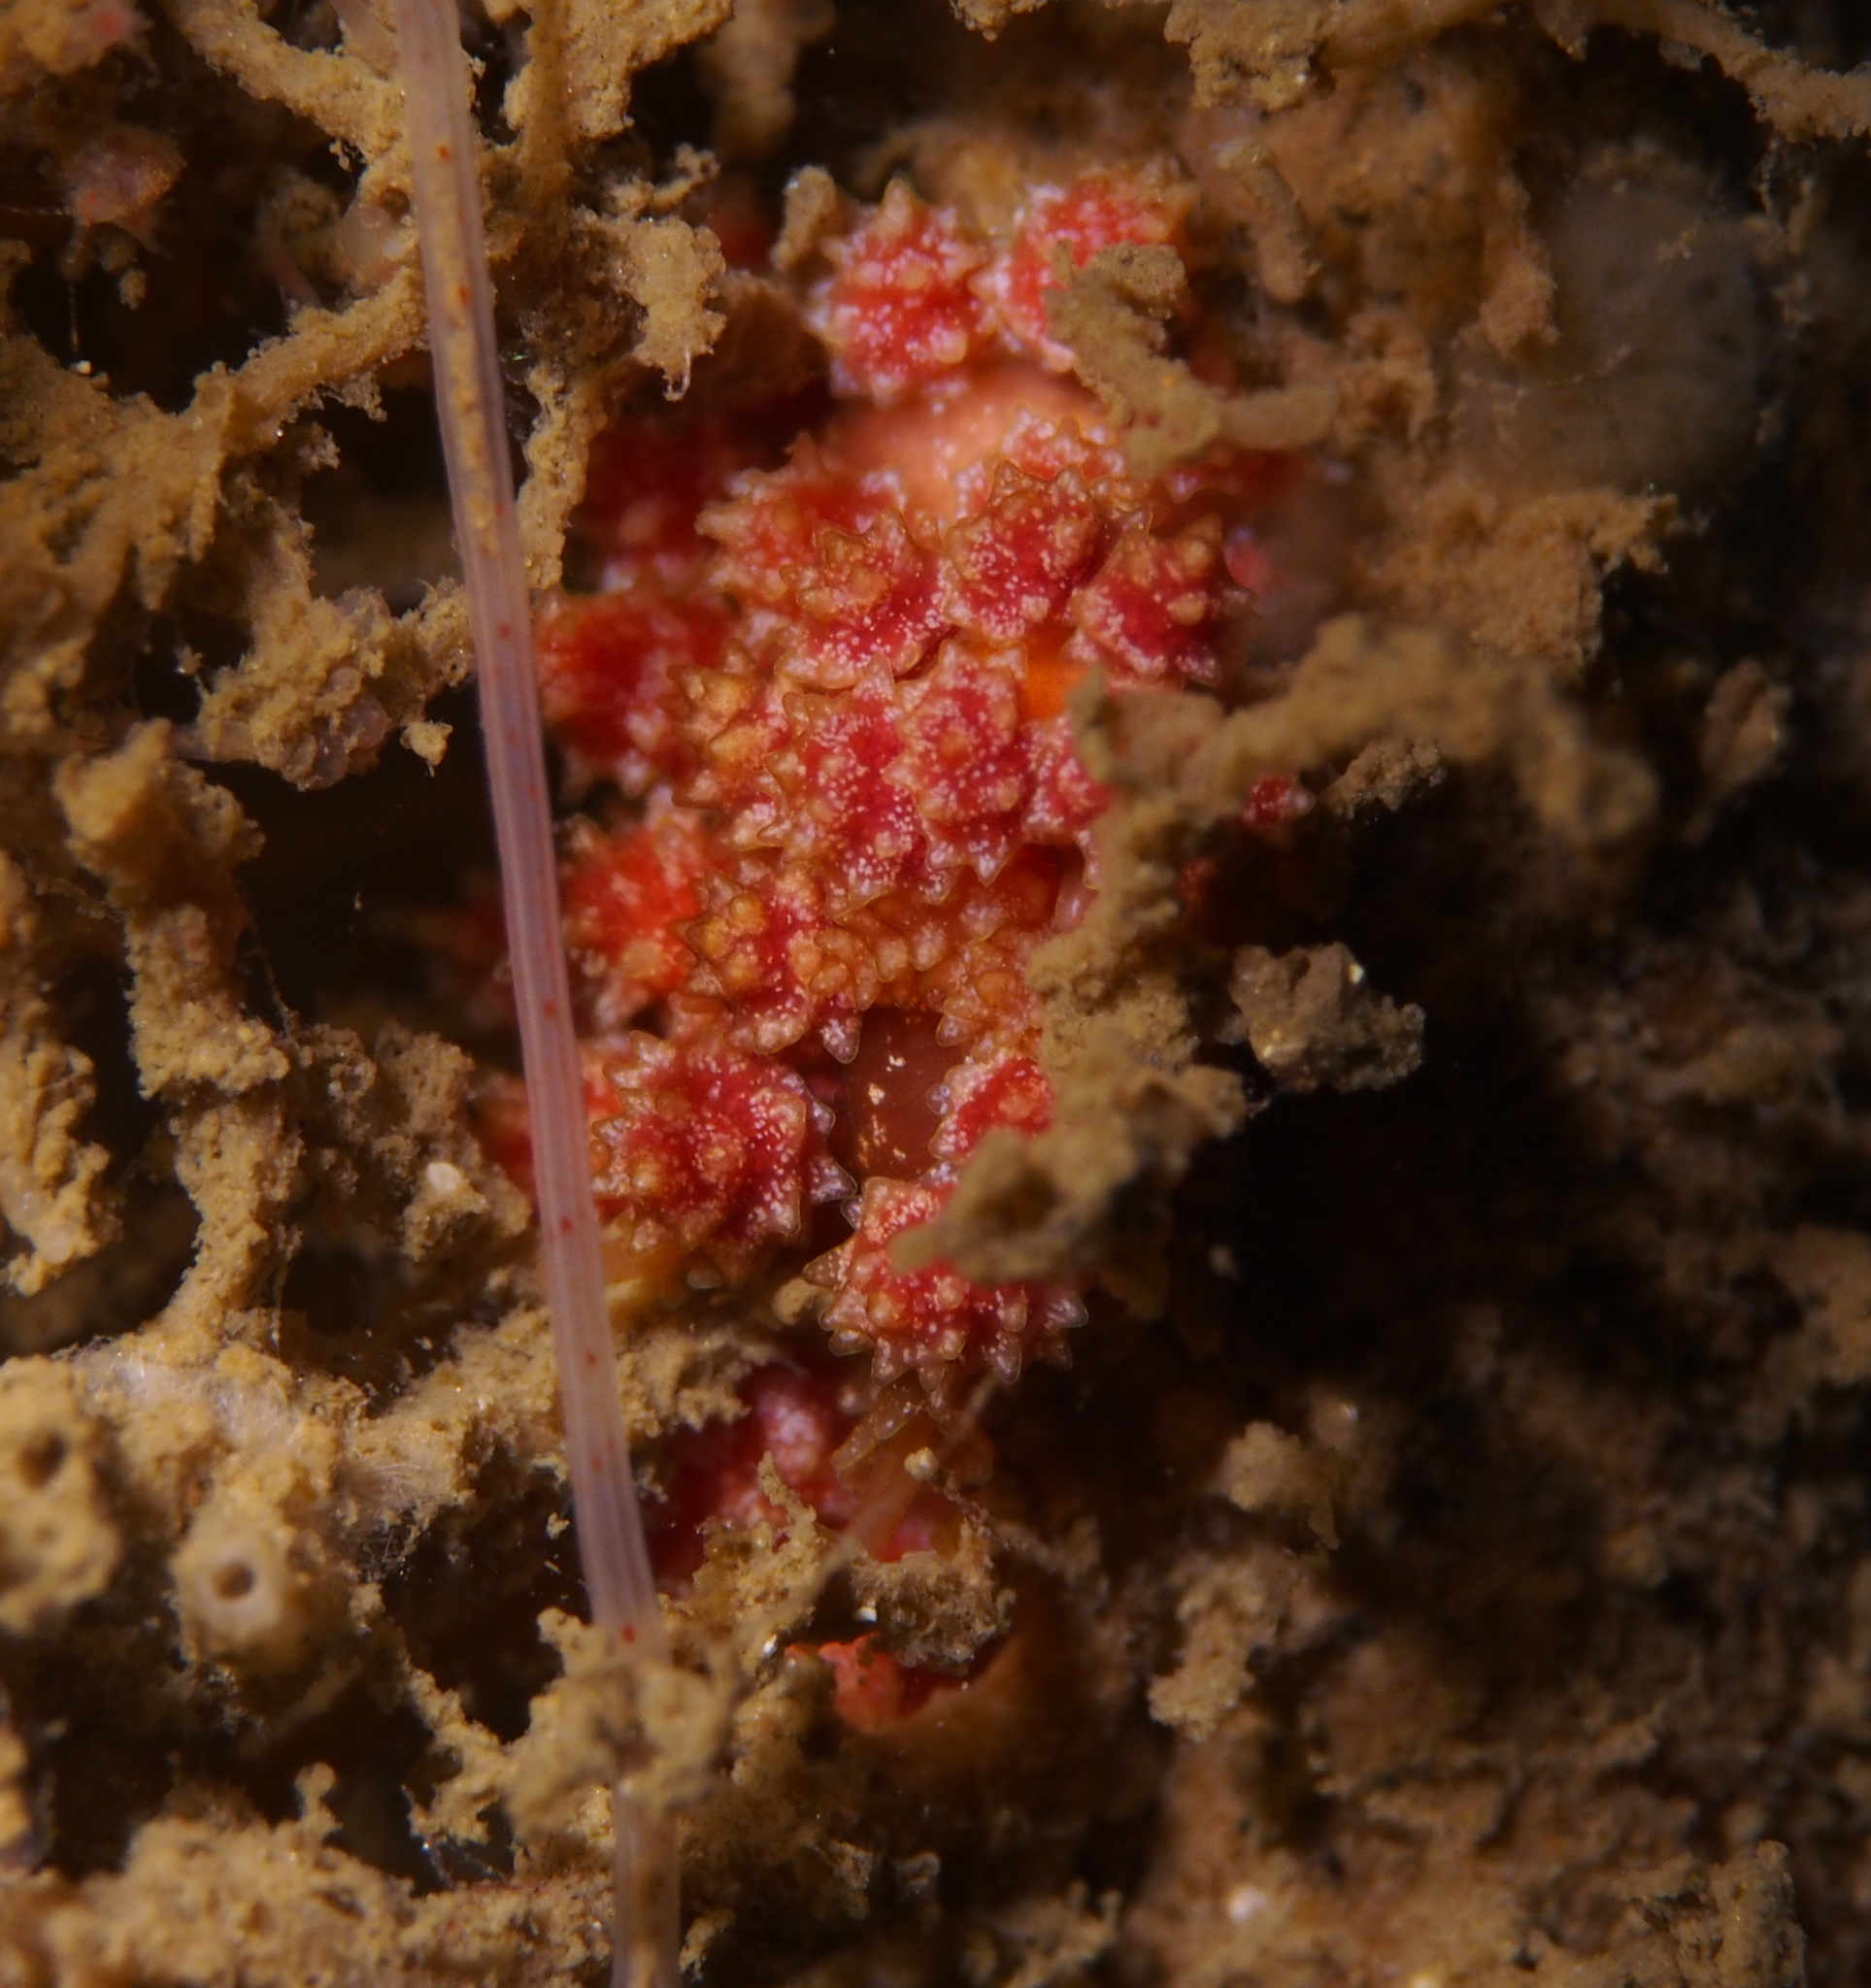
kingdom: Animalia
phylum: Mollusca
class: Gastropoda
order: Nudibranchia
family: Dotidae
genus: Doto
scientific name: Doto fragilis
